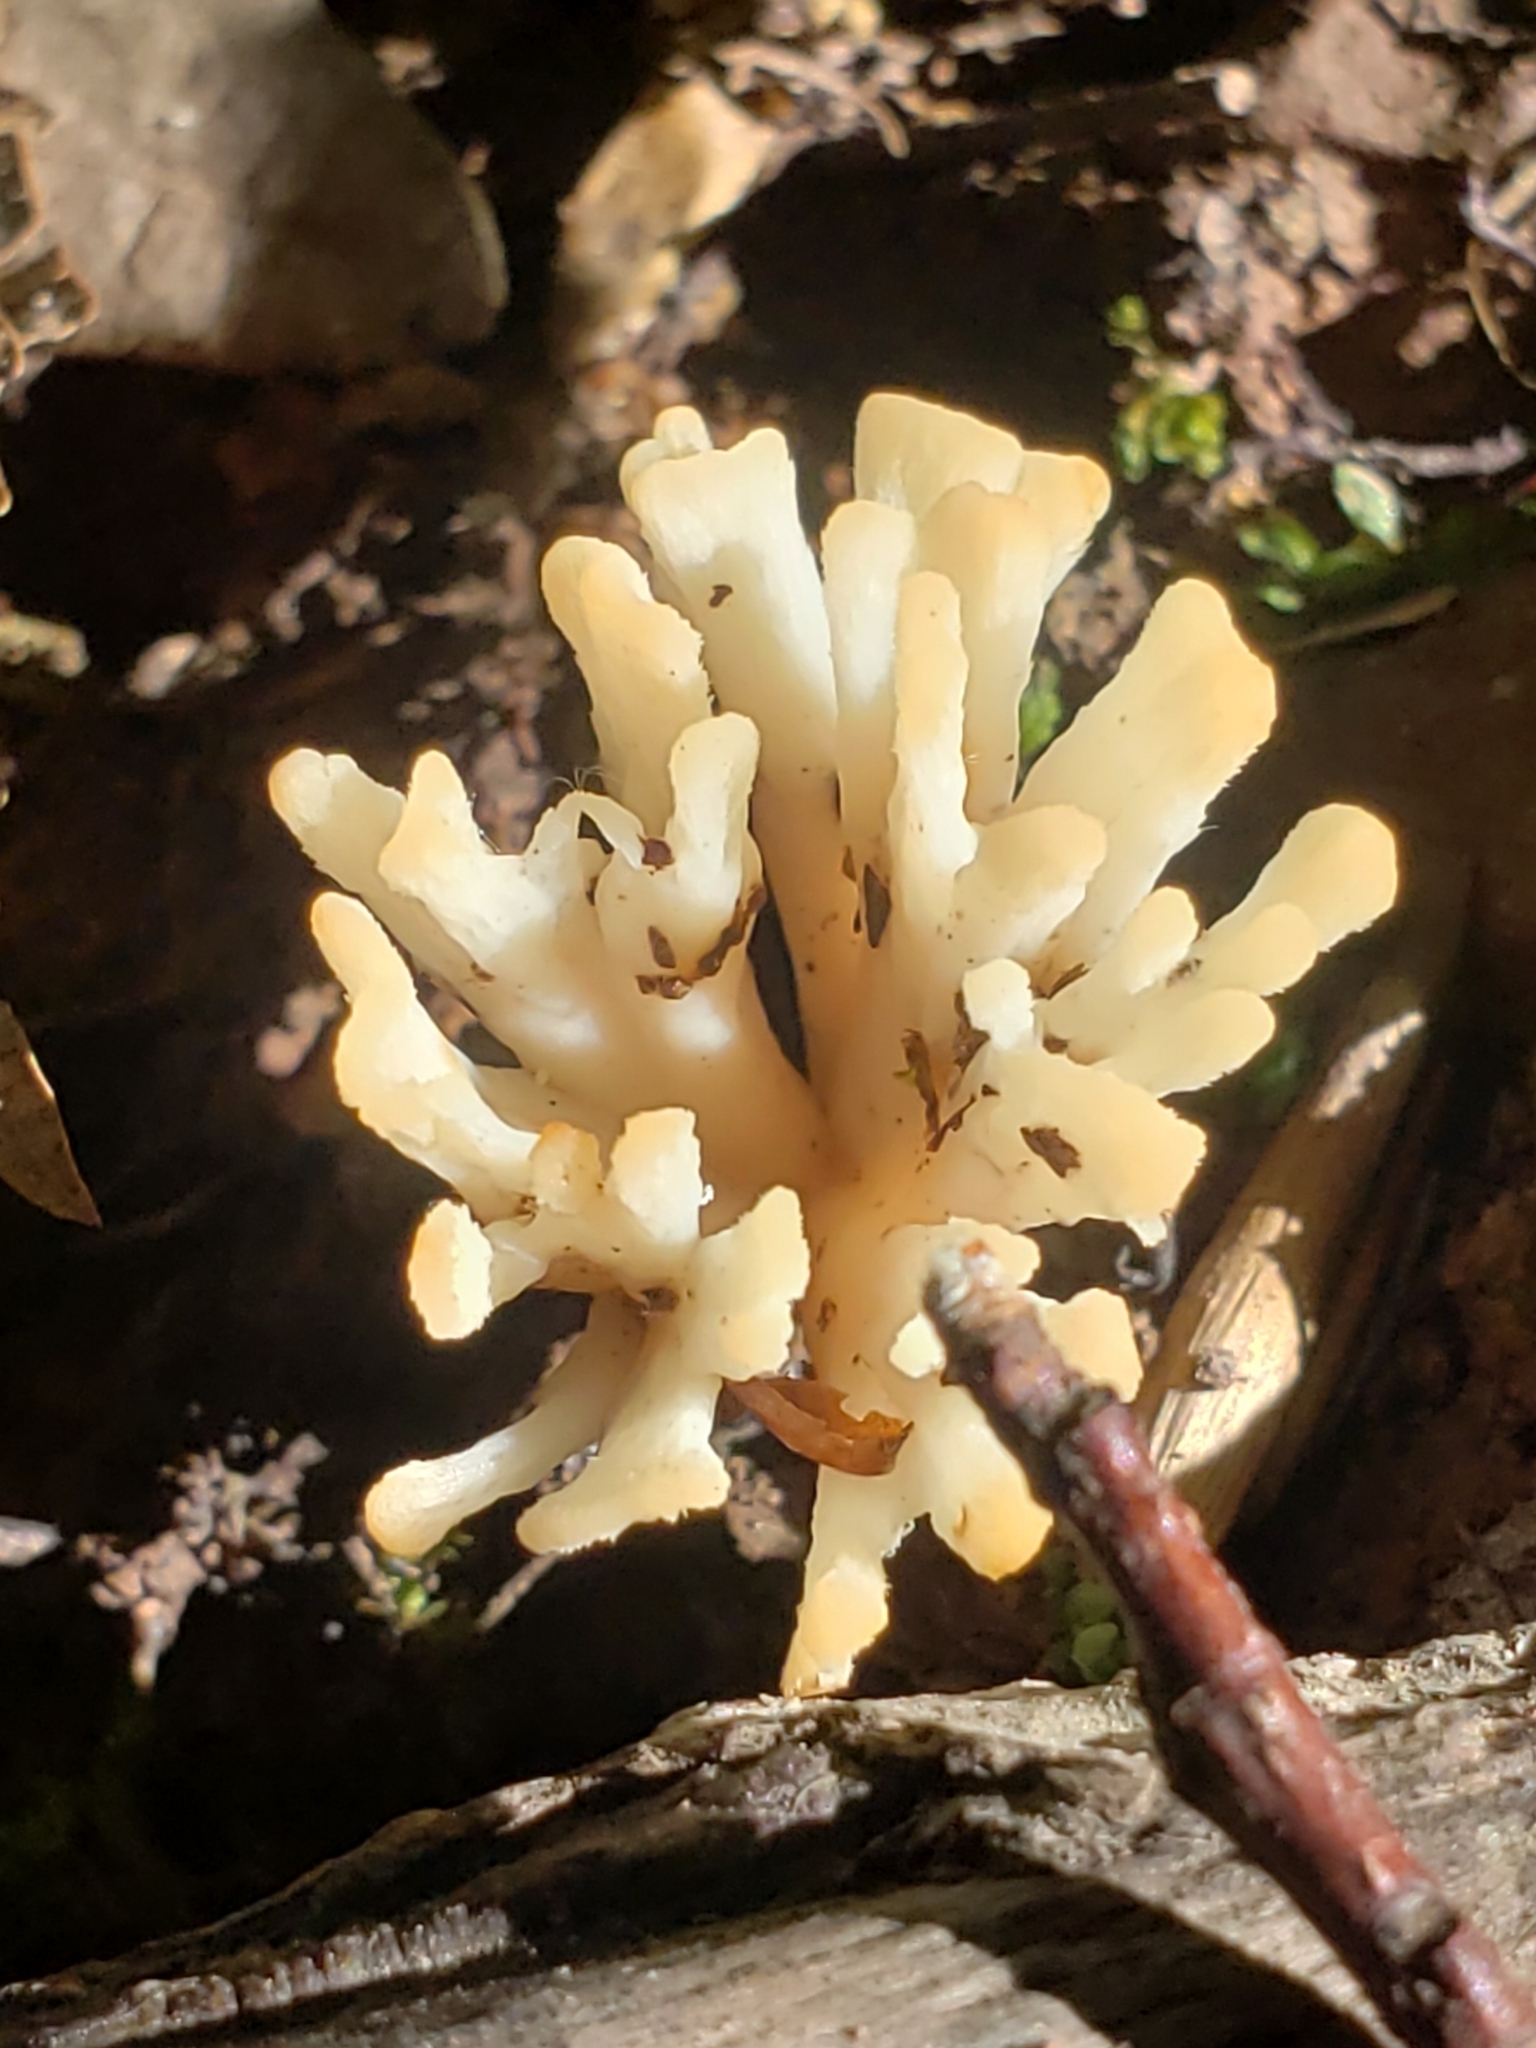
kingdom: Fungi
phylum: Basidiomycota
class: Agaricomycetes
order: Sebacinales
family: Sebacinaceae
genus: Sebacina
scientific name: Sebacina schweinitzii
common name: Jellied false coral fungus
